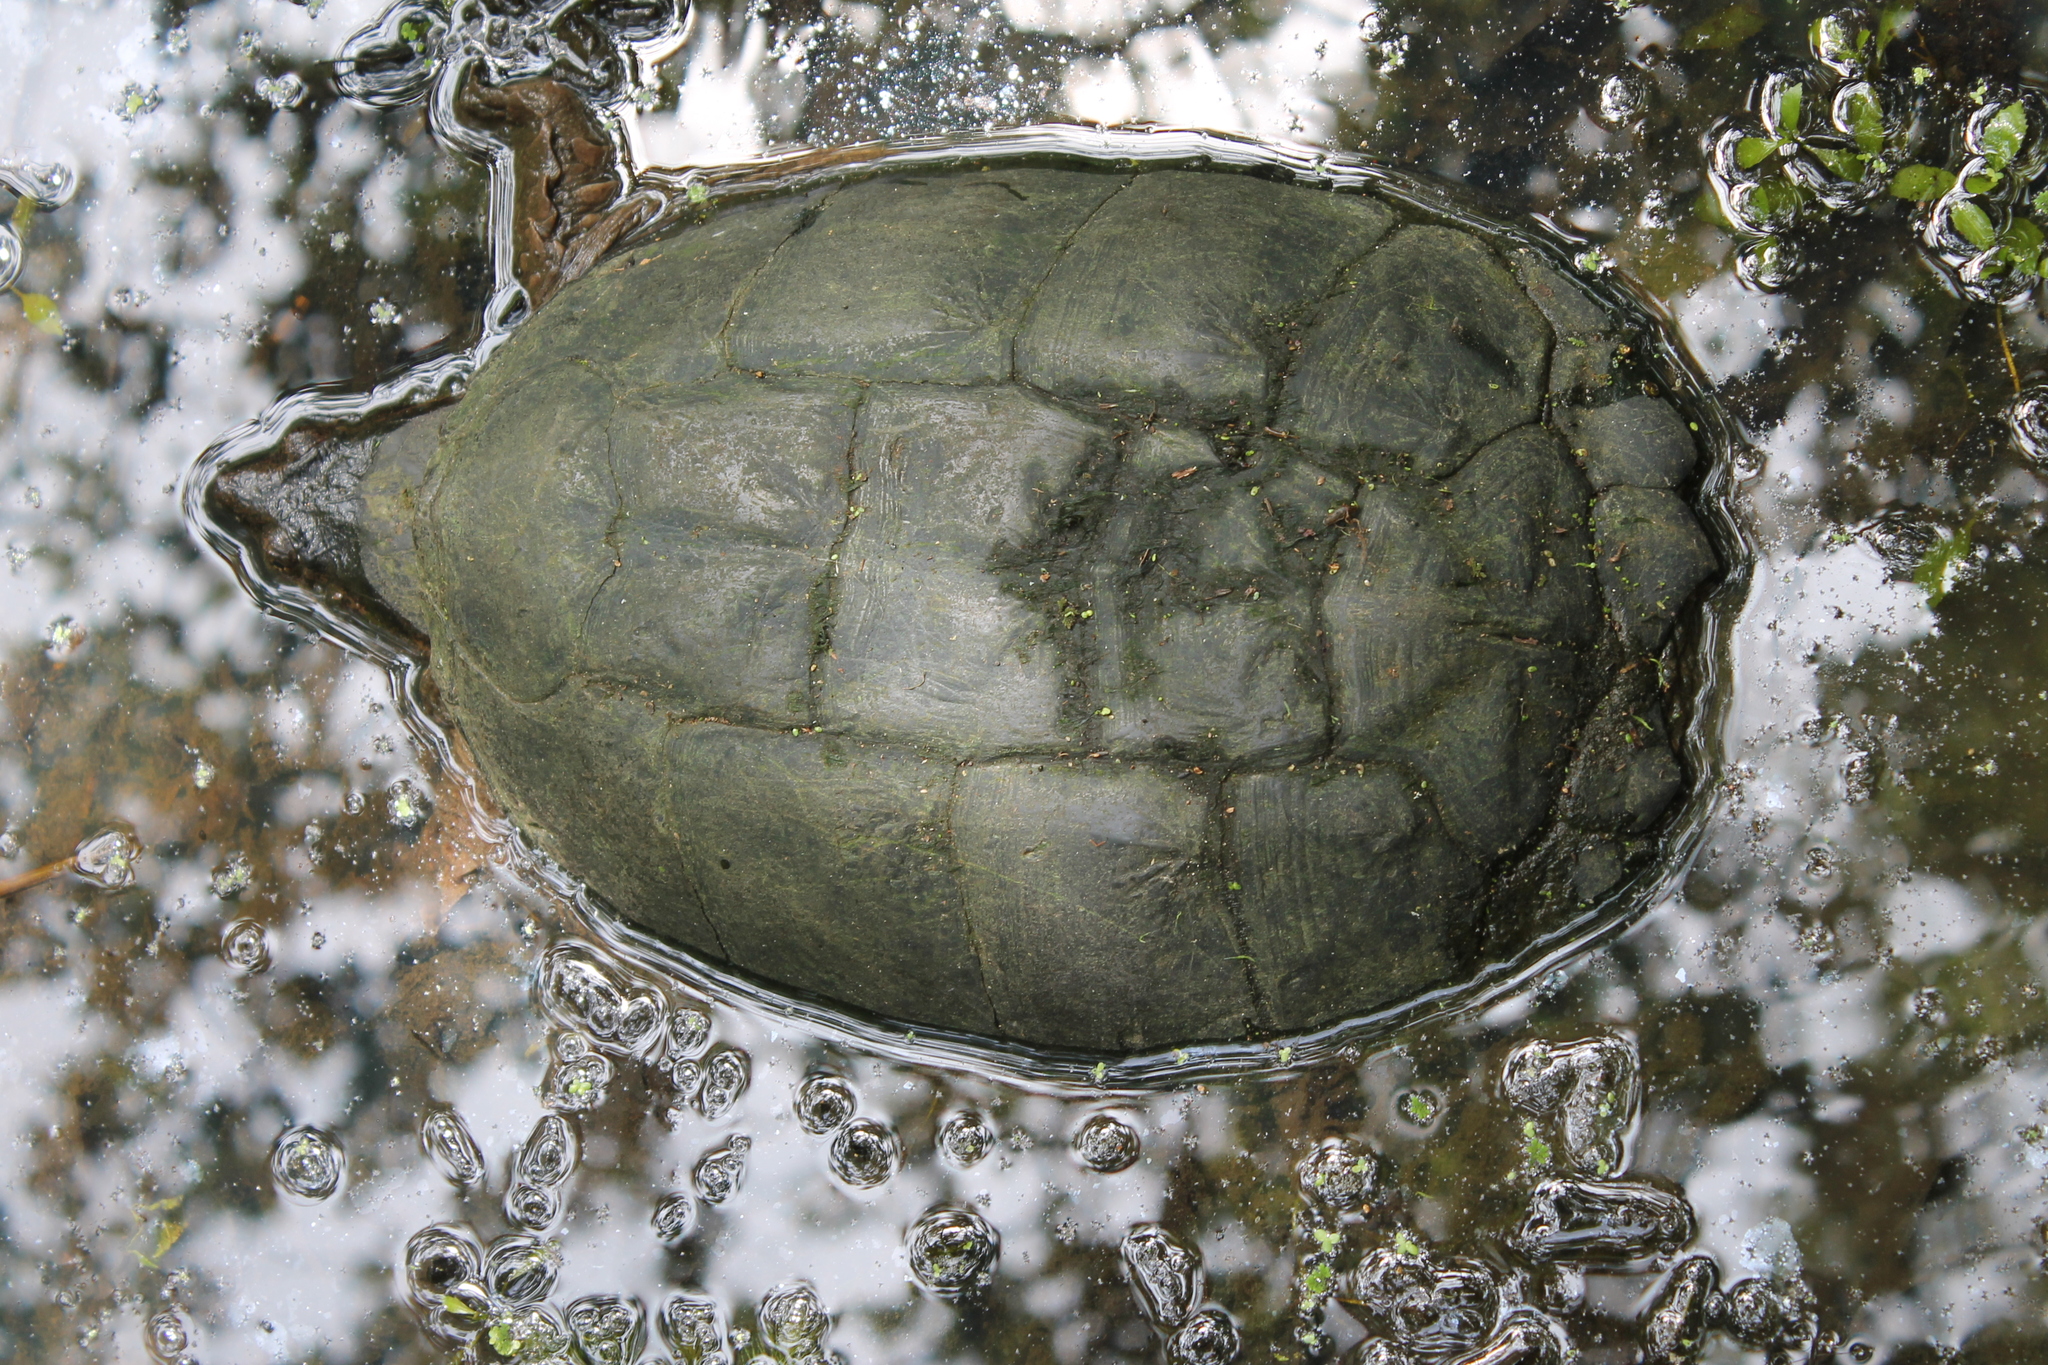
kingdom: Animalia
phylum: Chordata
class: Testudines
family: Chelydridae
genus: Chelydra
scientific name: Chelydra serpentina
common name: Common snapping turtle
